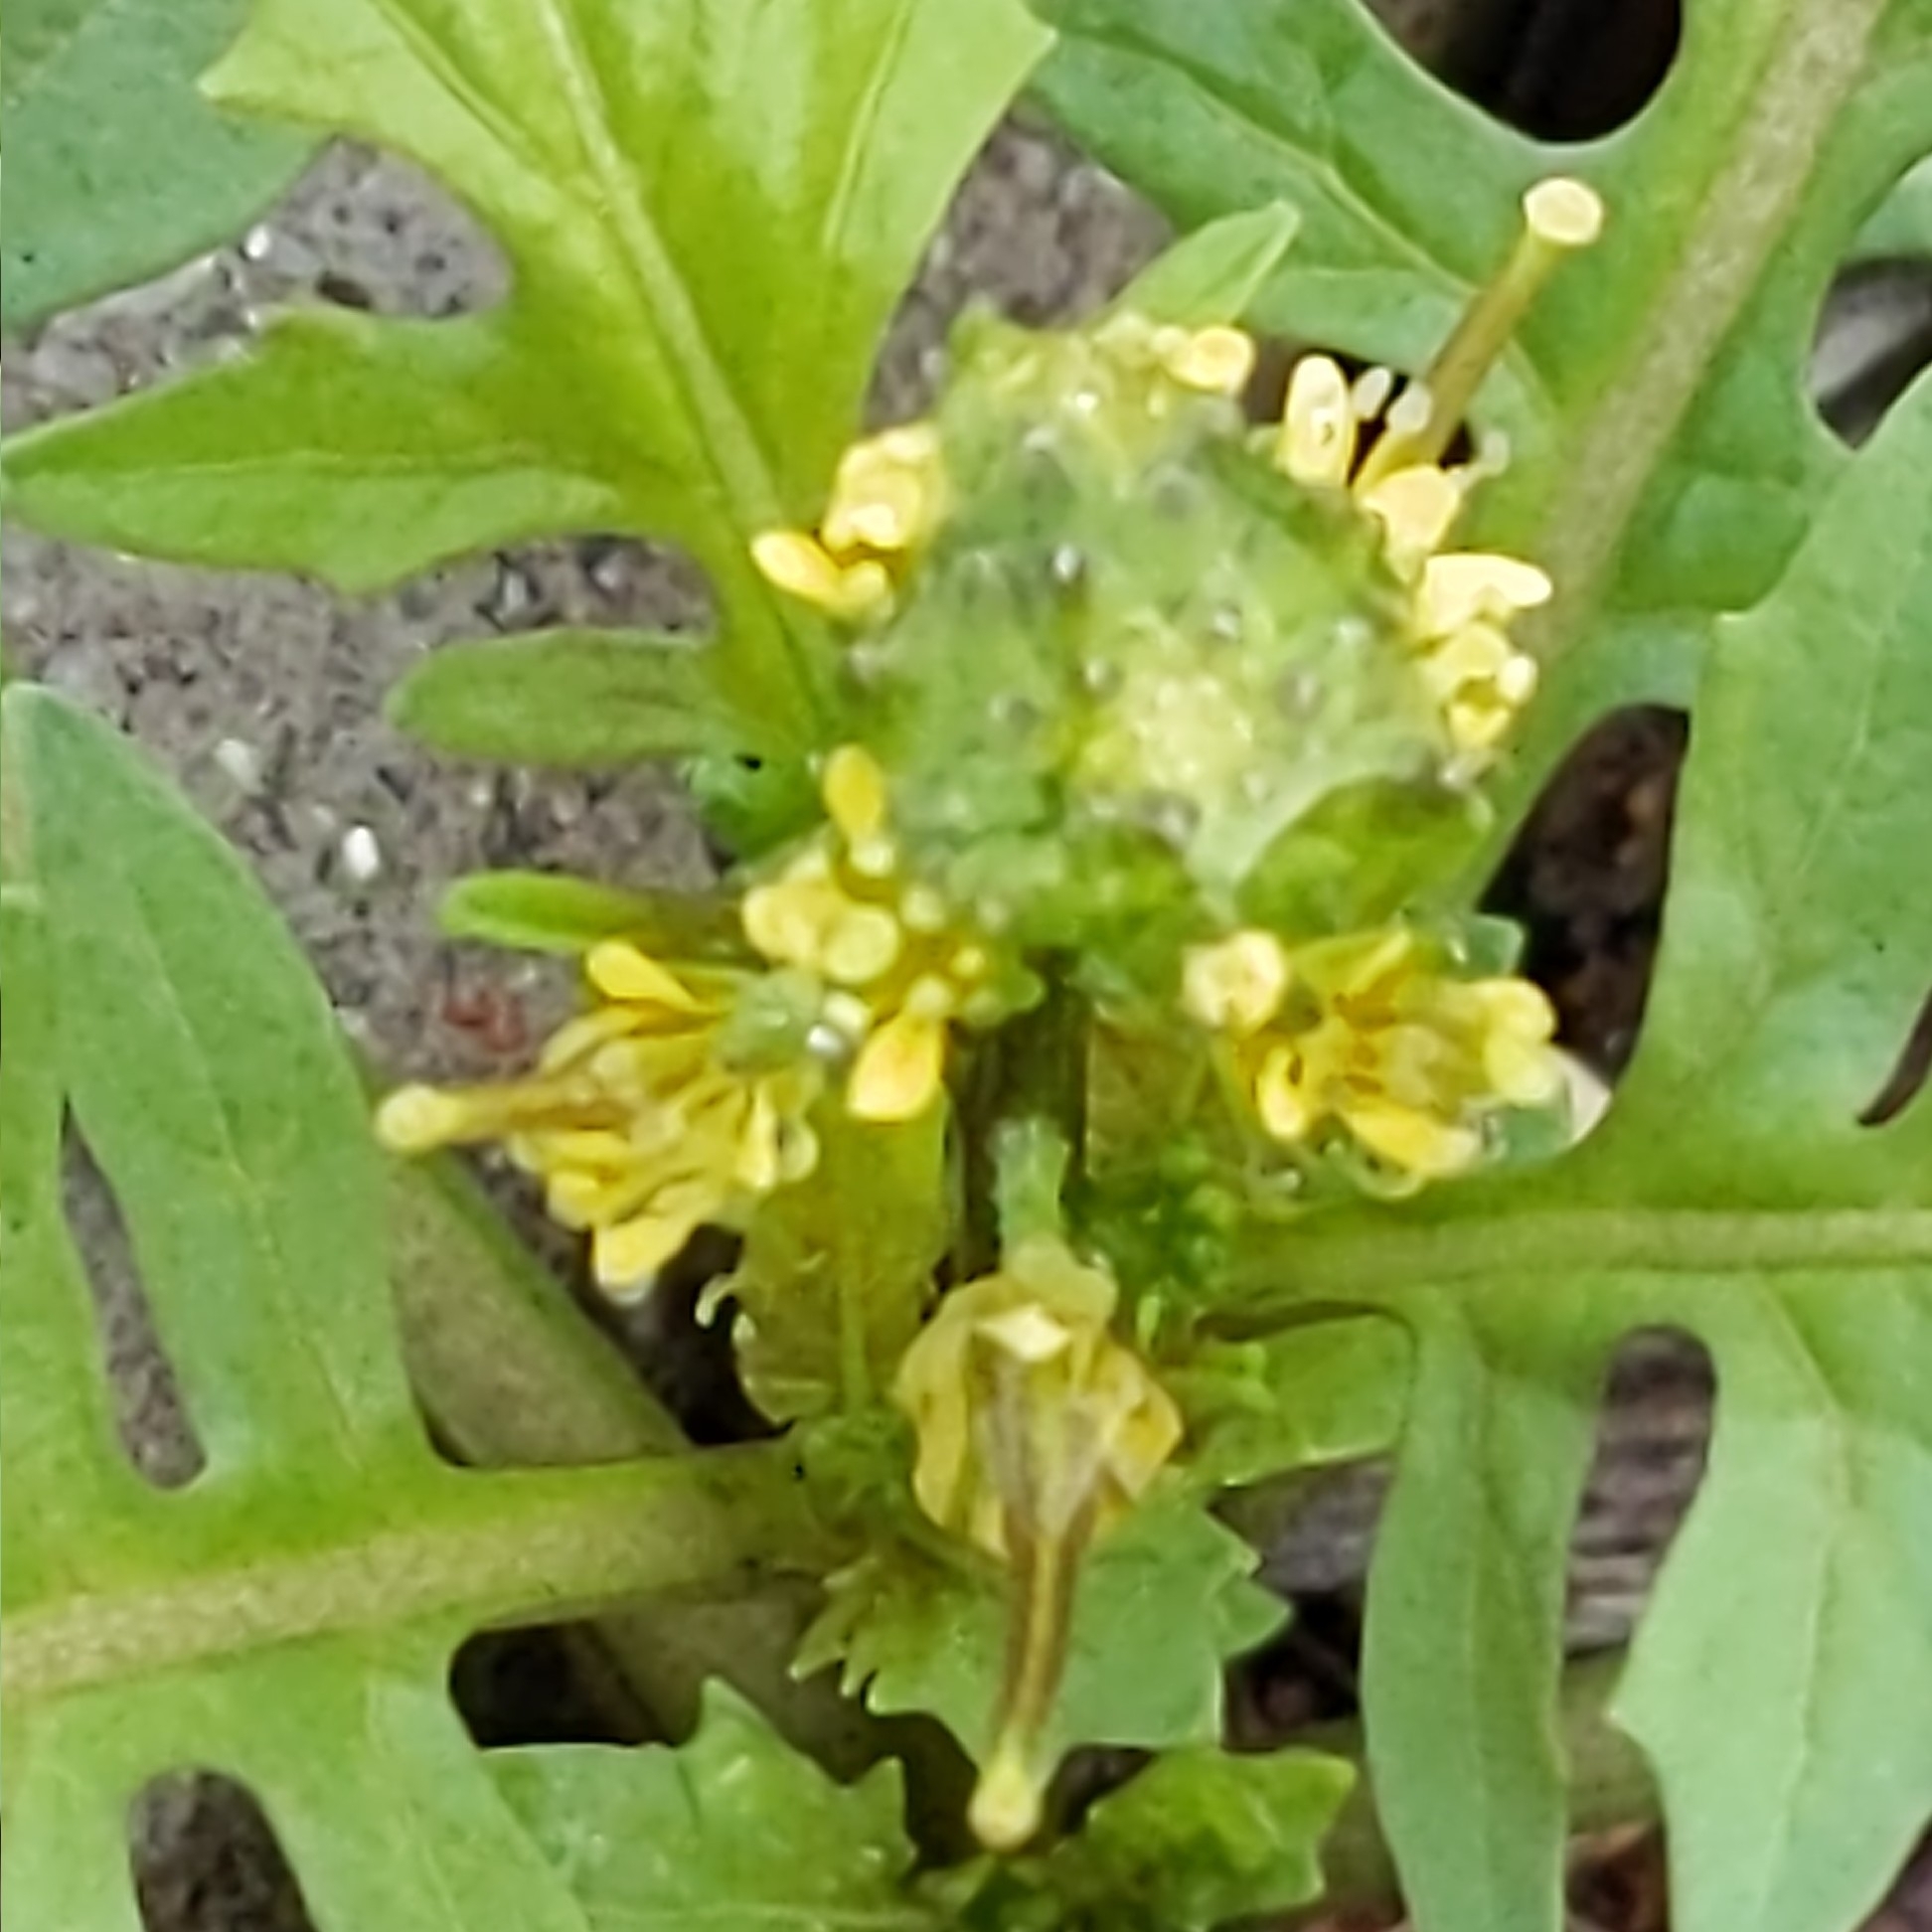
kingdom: Plantae
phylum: Tracheophyta
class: Magnoliopsida
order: Brassicales
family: Brassicaceae
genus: Sisymbrium
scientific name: Sisymbrium erysimoides
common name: French rocket
